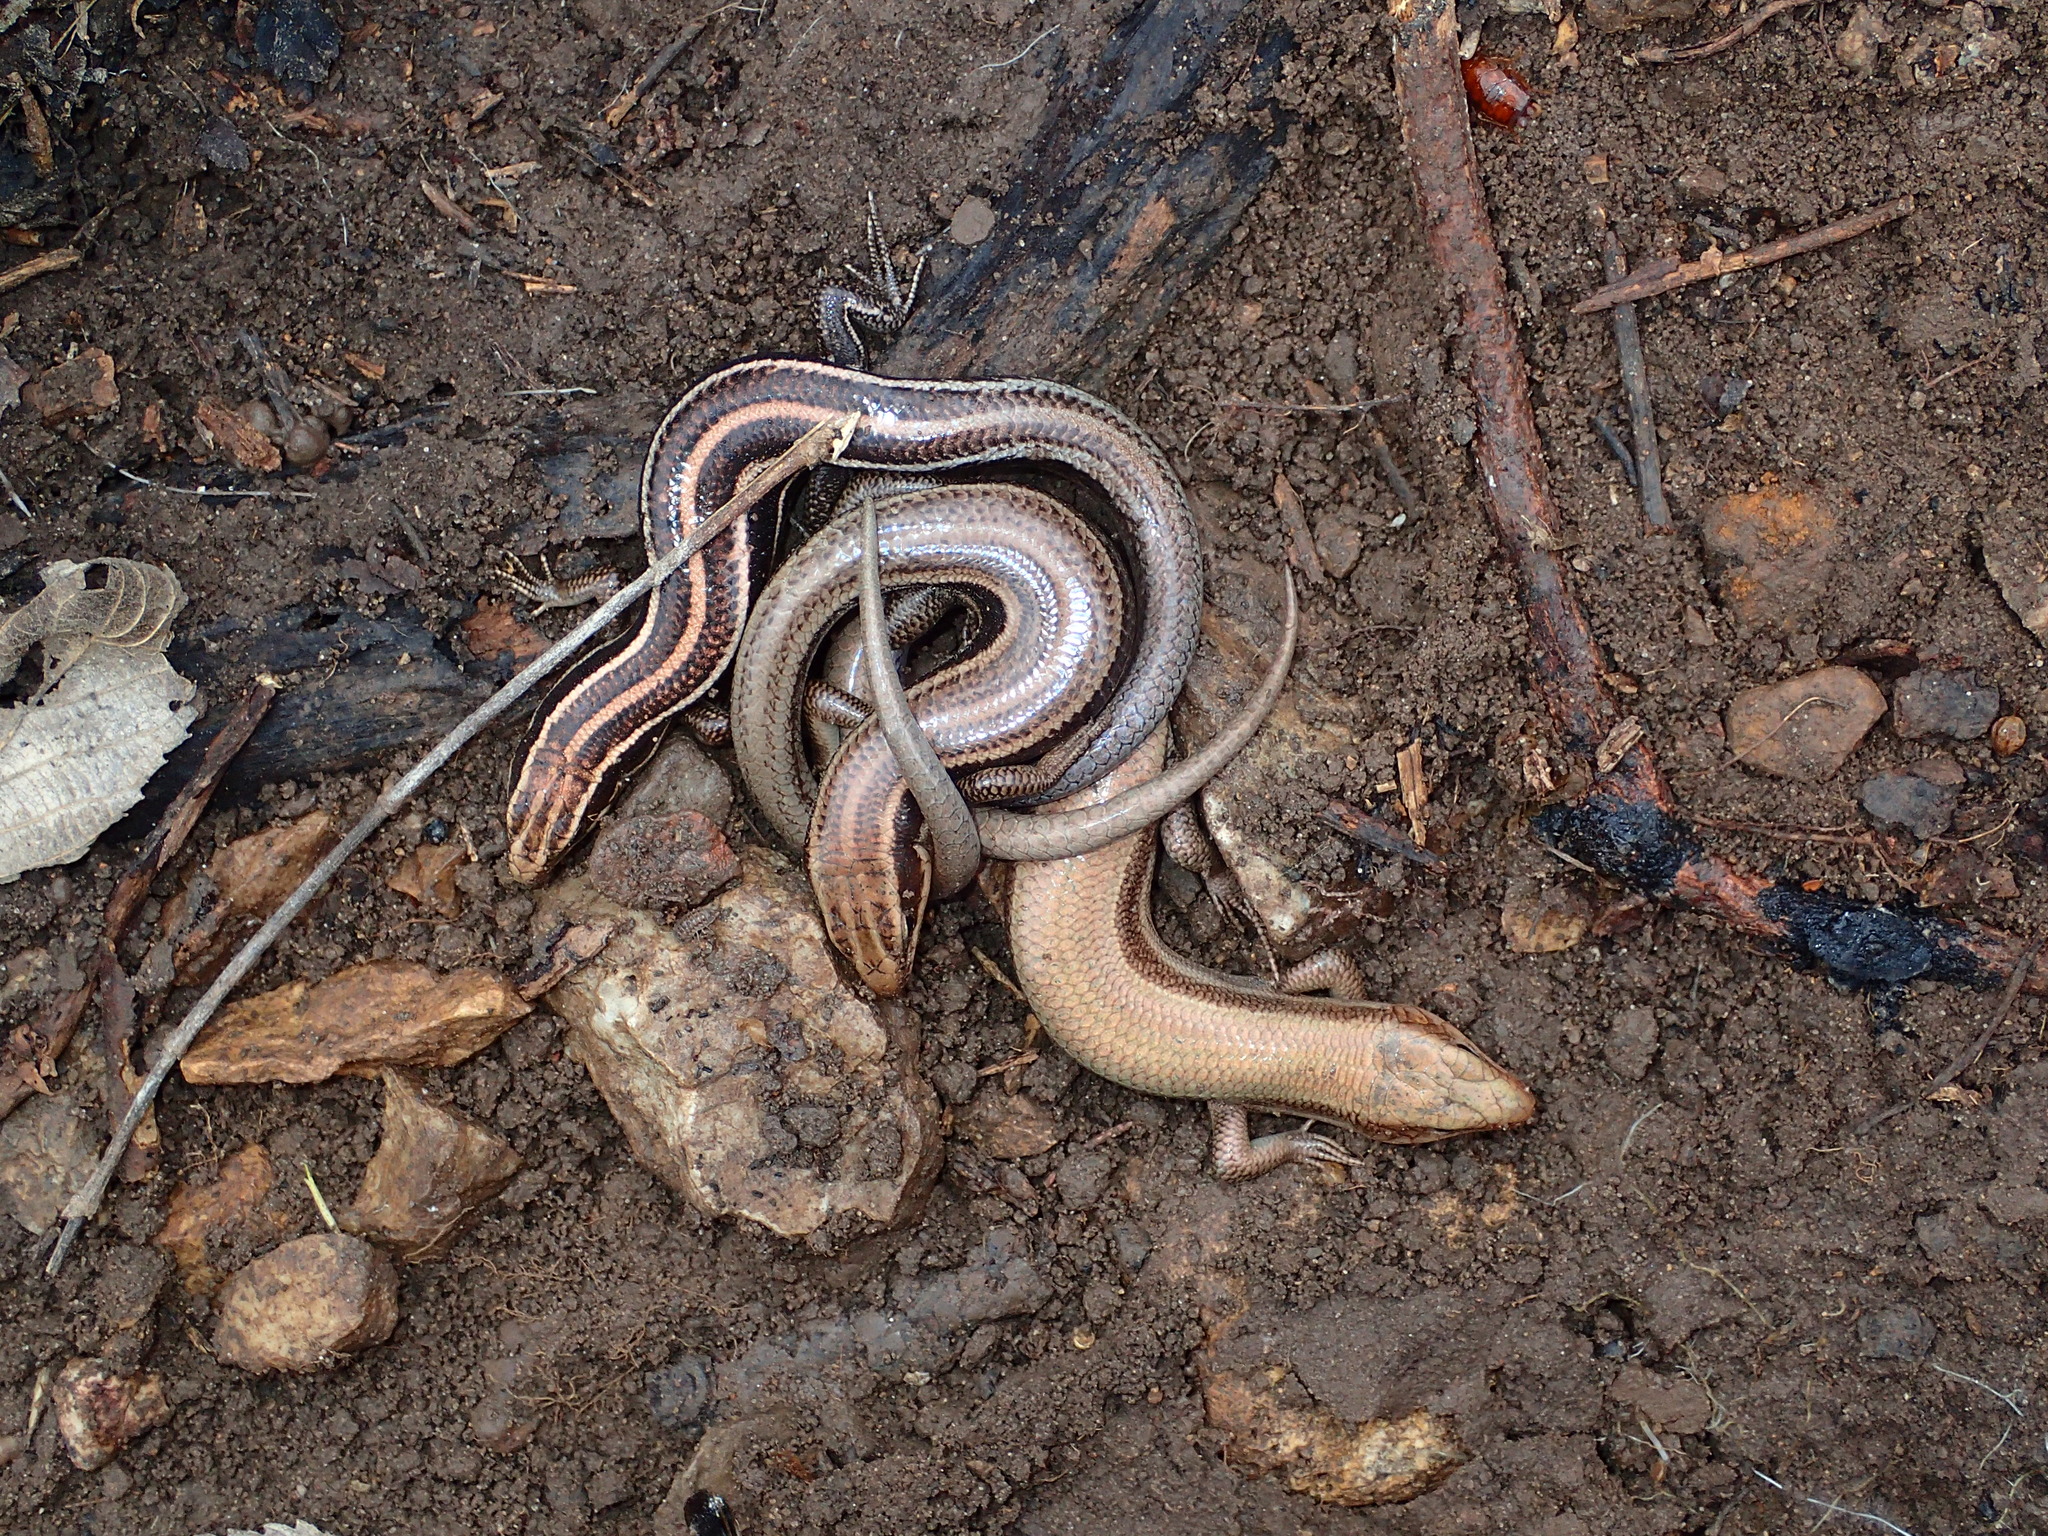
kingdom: Animalia
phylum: Chordata
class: Squamata
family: Scincidae
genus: Plestiodon
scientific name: Plestiodon fasciatus
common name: Five-lined skink
